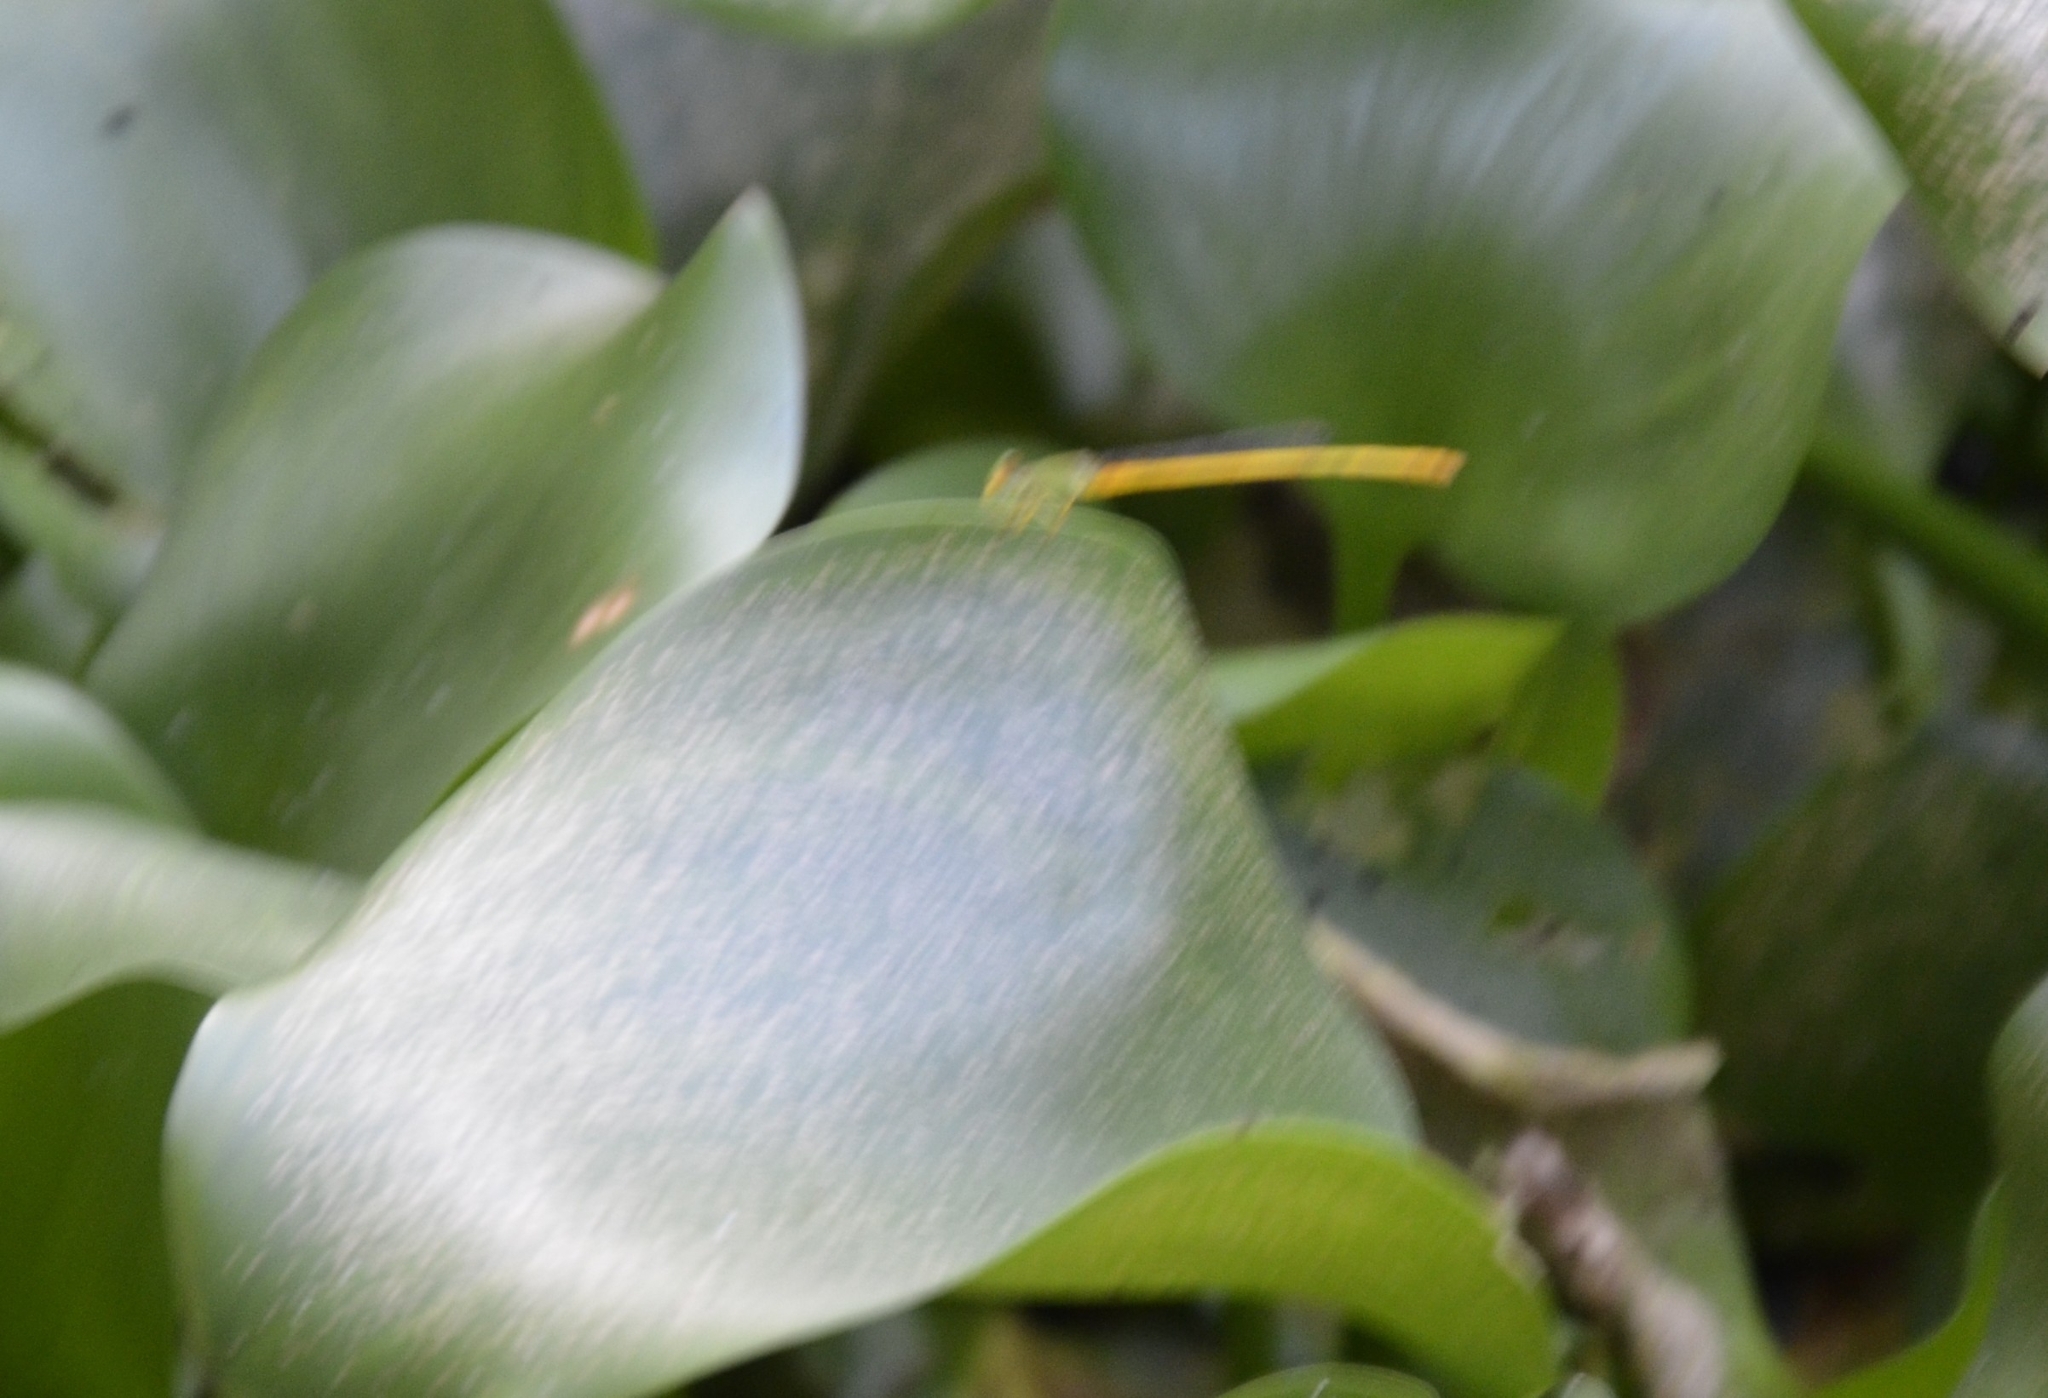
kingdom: Animalia
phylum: Arthropoda
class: Insecta
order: Odonata
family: Coenagrionidae
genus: Ceriagrion
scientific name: Ceriagrion coromandelianum
